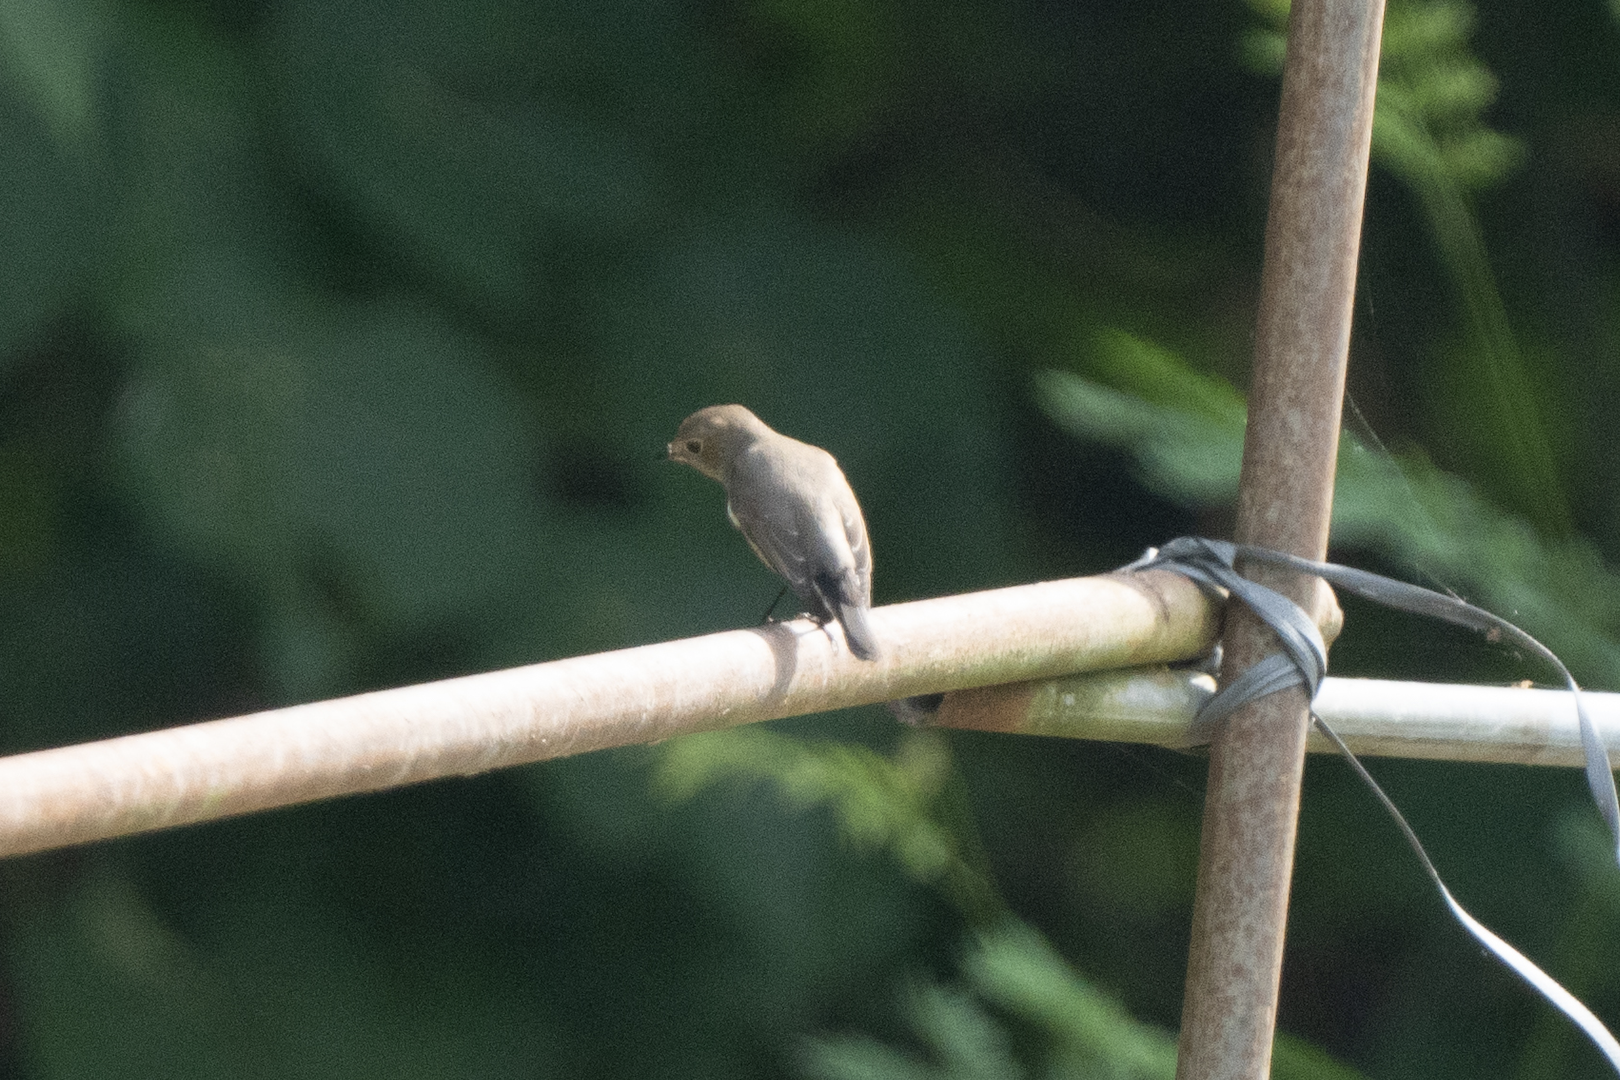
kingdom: Animalia
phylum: Chordata
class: Aves
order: Passeriformes
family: Muscicapidae
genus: Ficedula
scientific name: Ficedula albicilla
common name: Taiga flycatcher
